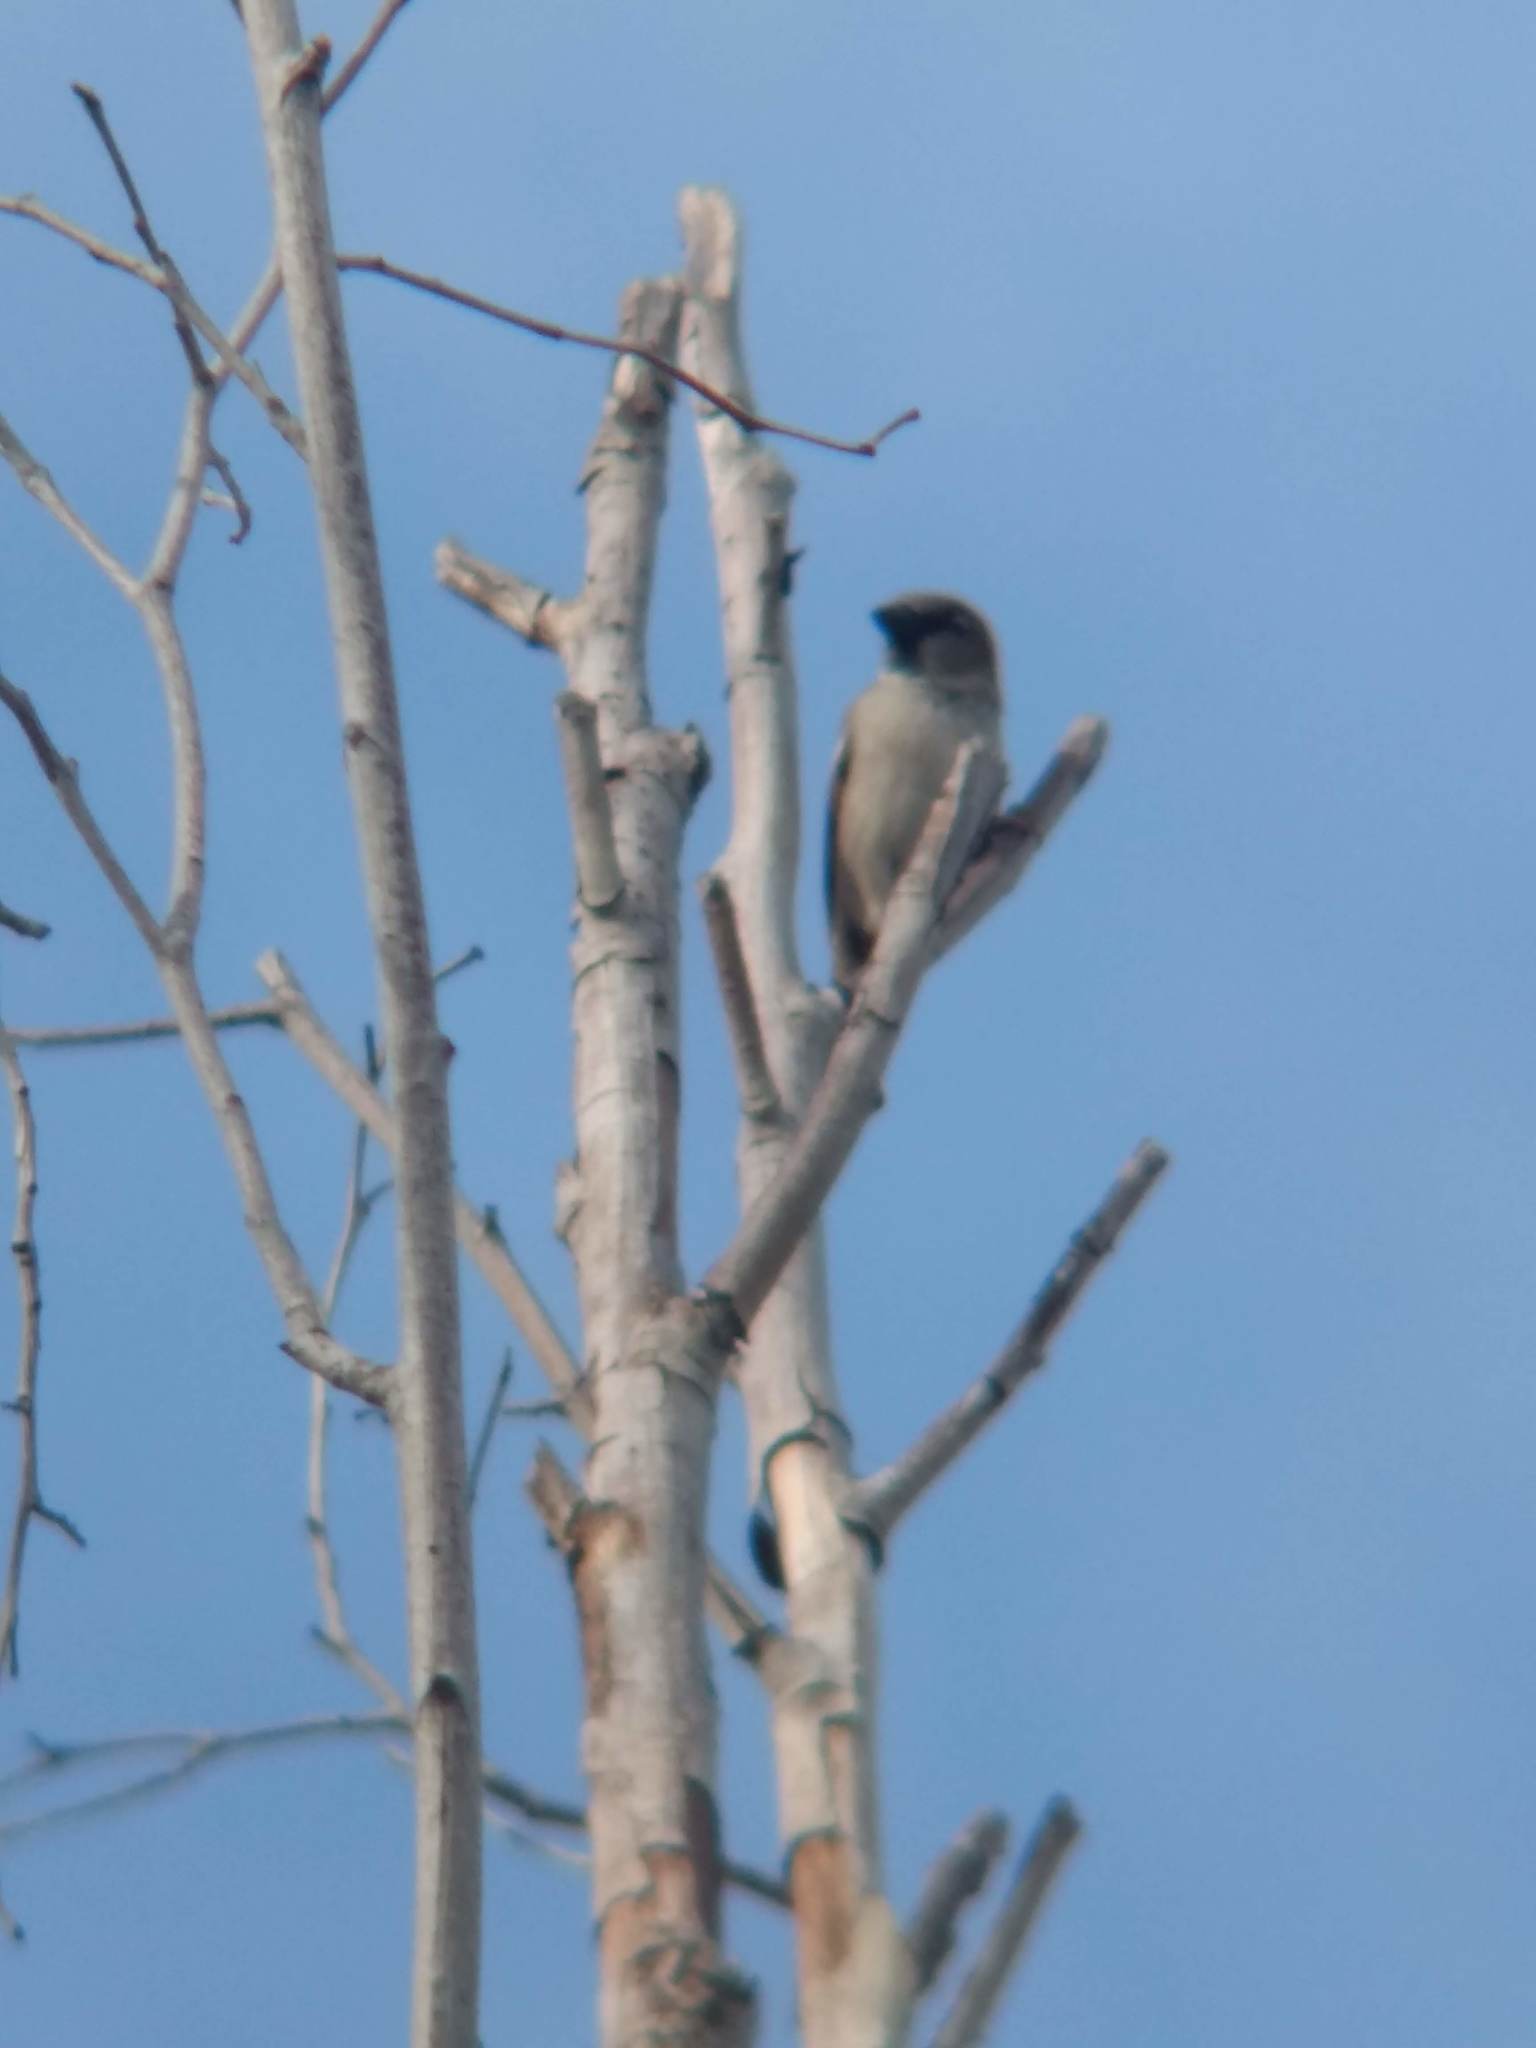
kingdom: Animalia
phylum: Chordata
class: Aves
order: Passeriformes
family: Passeridae
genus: Passer
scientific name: Passer domesticus
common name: House sparrow
